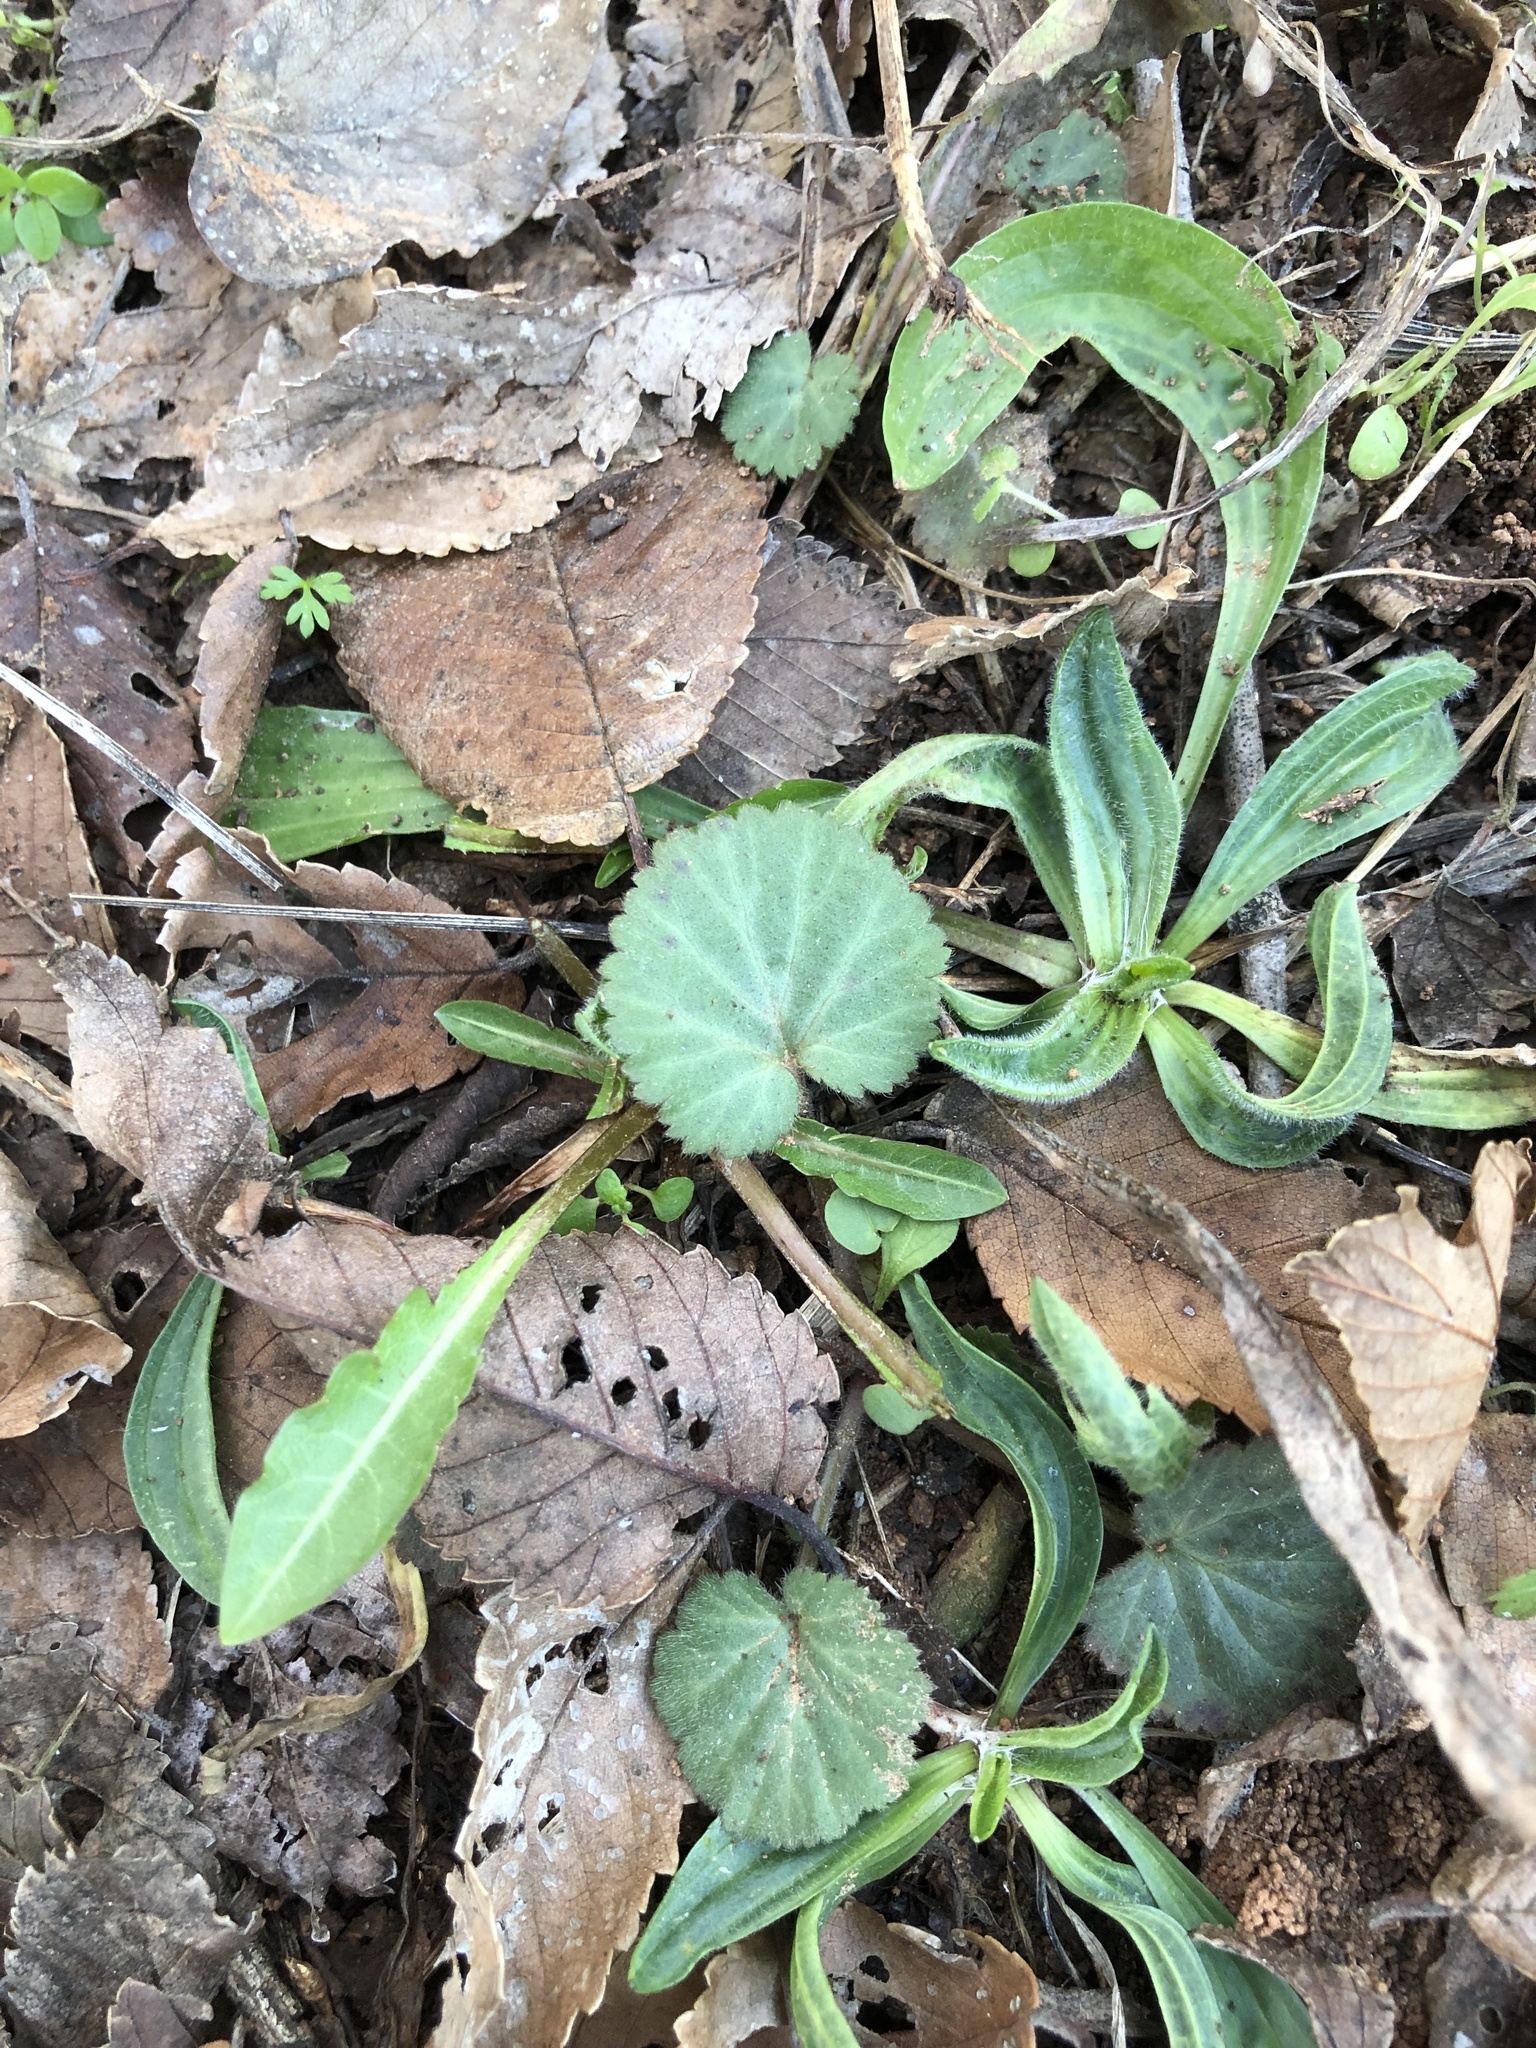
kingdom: Plantae
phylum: Tracheophyta
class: Magnoliopsida
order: Rosales
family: Rosaceae
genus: Geum
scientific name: Geum canadense
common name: White avens
